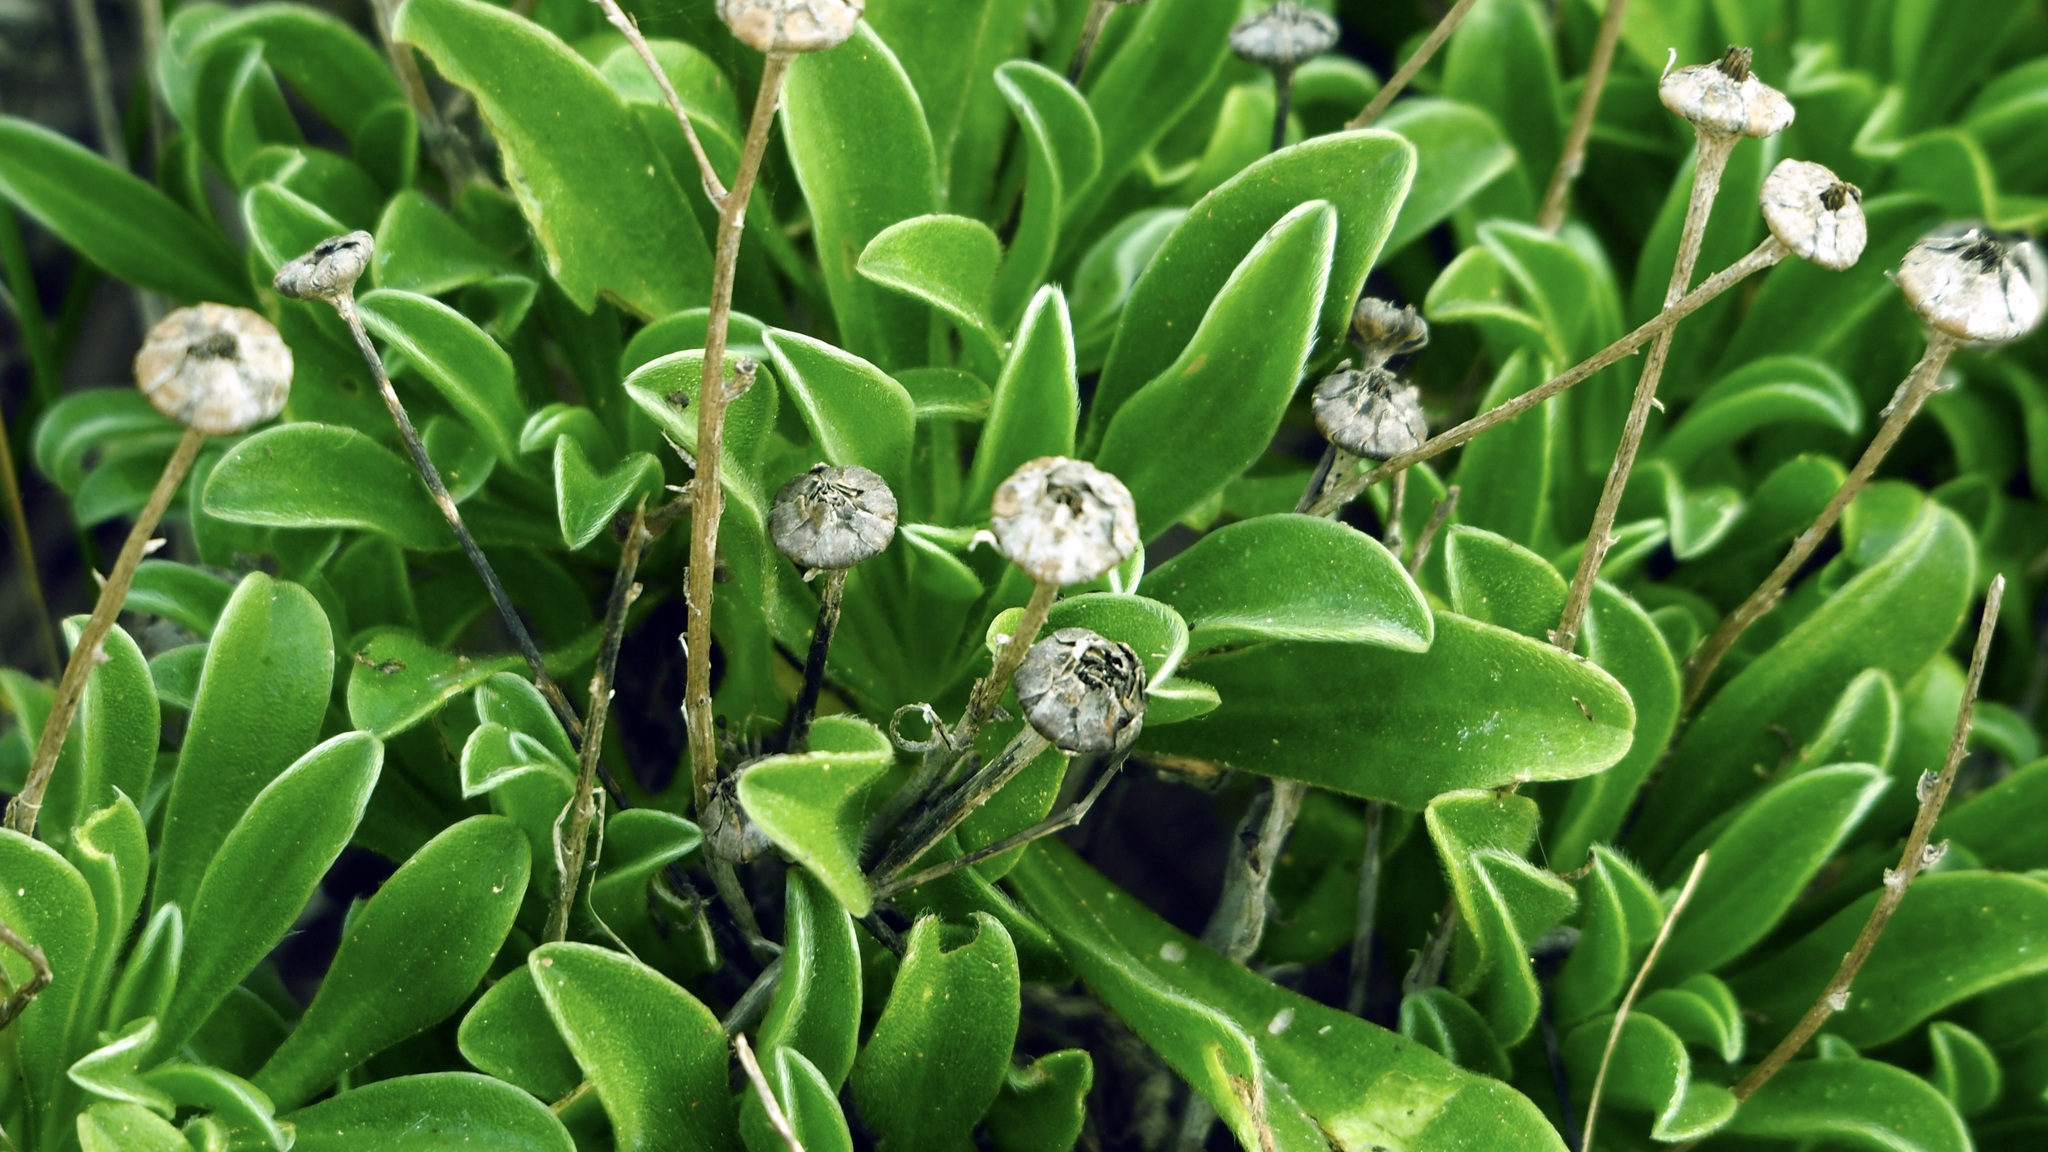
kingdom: Plantae
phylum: Tracheophyta
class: Magnoliopsida
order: Asterales
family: Asteraceae
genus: Pallenis
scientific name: Pallenis maritima
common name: Golden coin daisy
